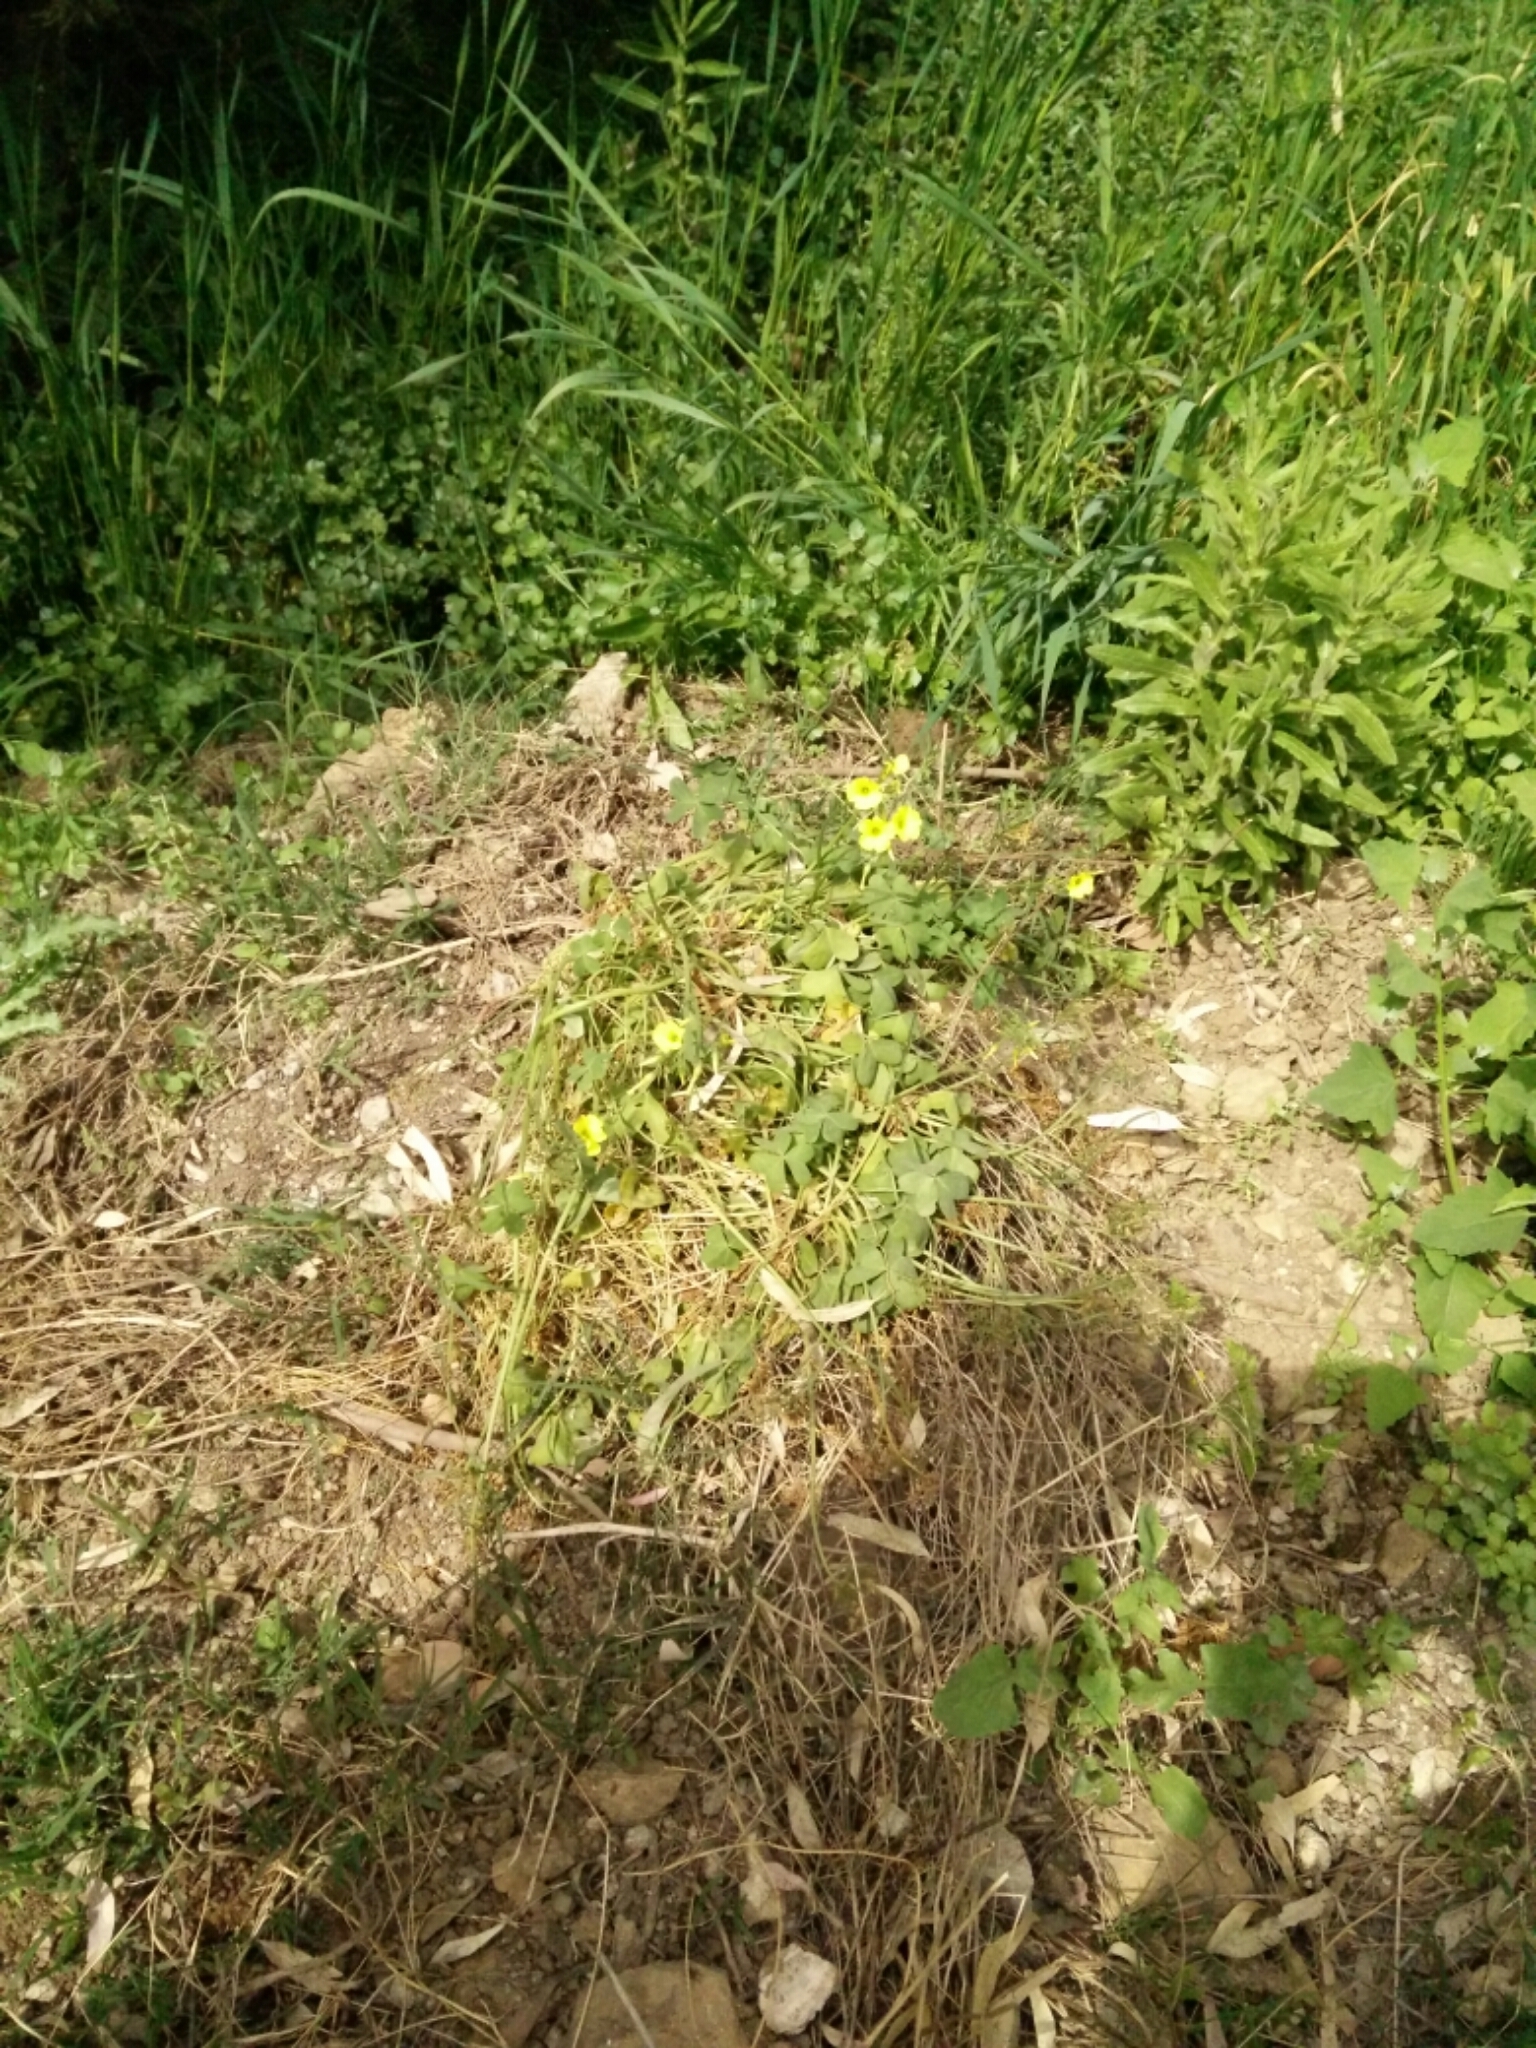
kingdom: Plantae
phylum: Tracheophyta
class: Magnoliopsida
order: Oxalidales
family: Oxalidaceae
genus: Oxalis
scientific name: Oxalis pes-caprae
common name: Bermuda-buttercup
